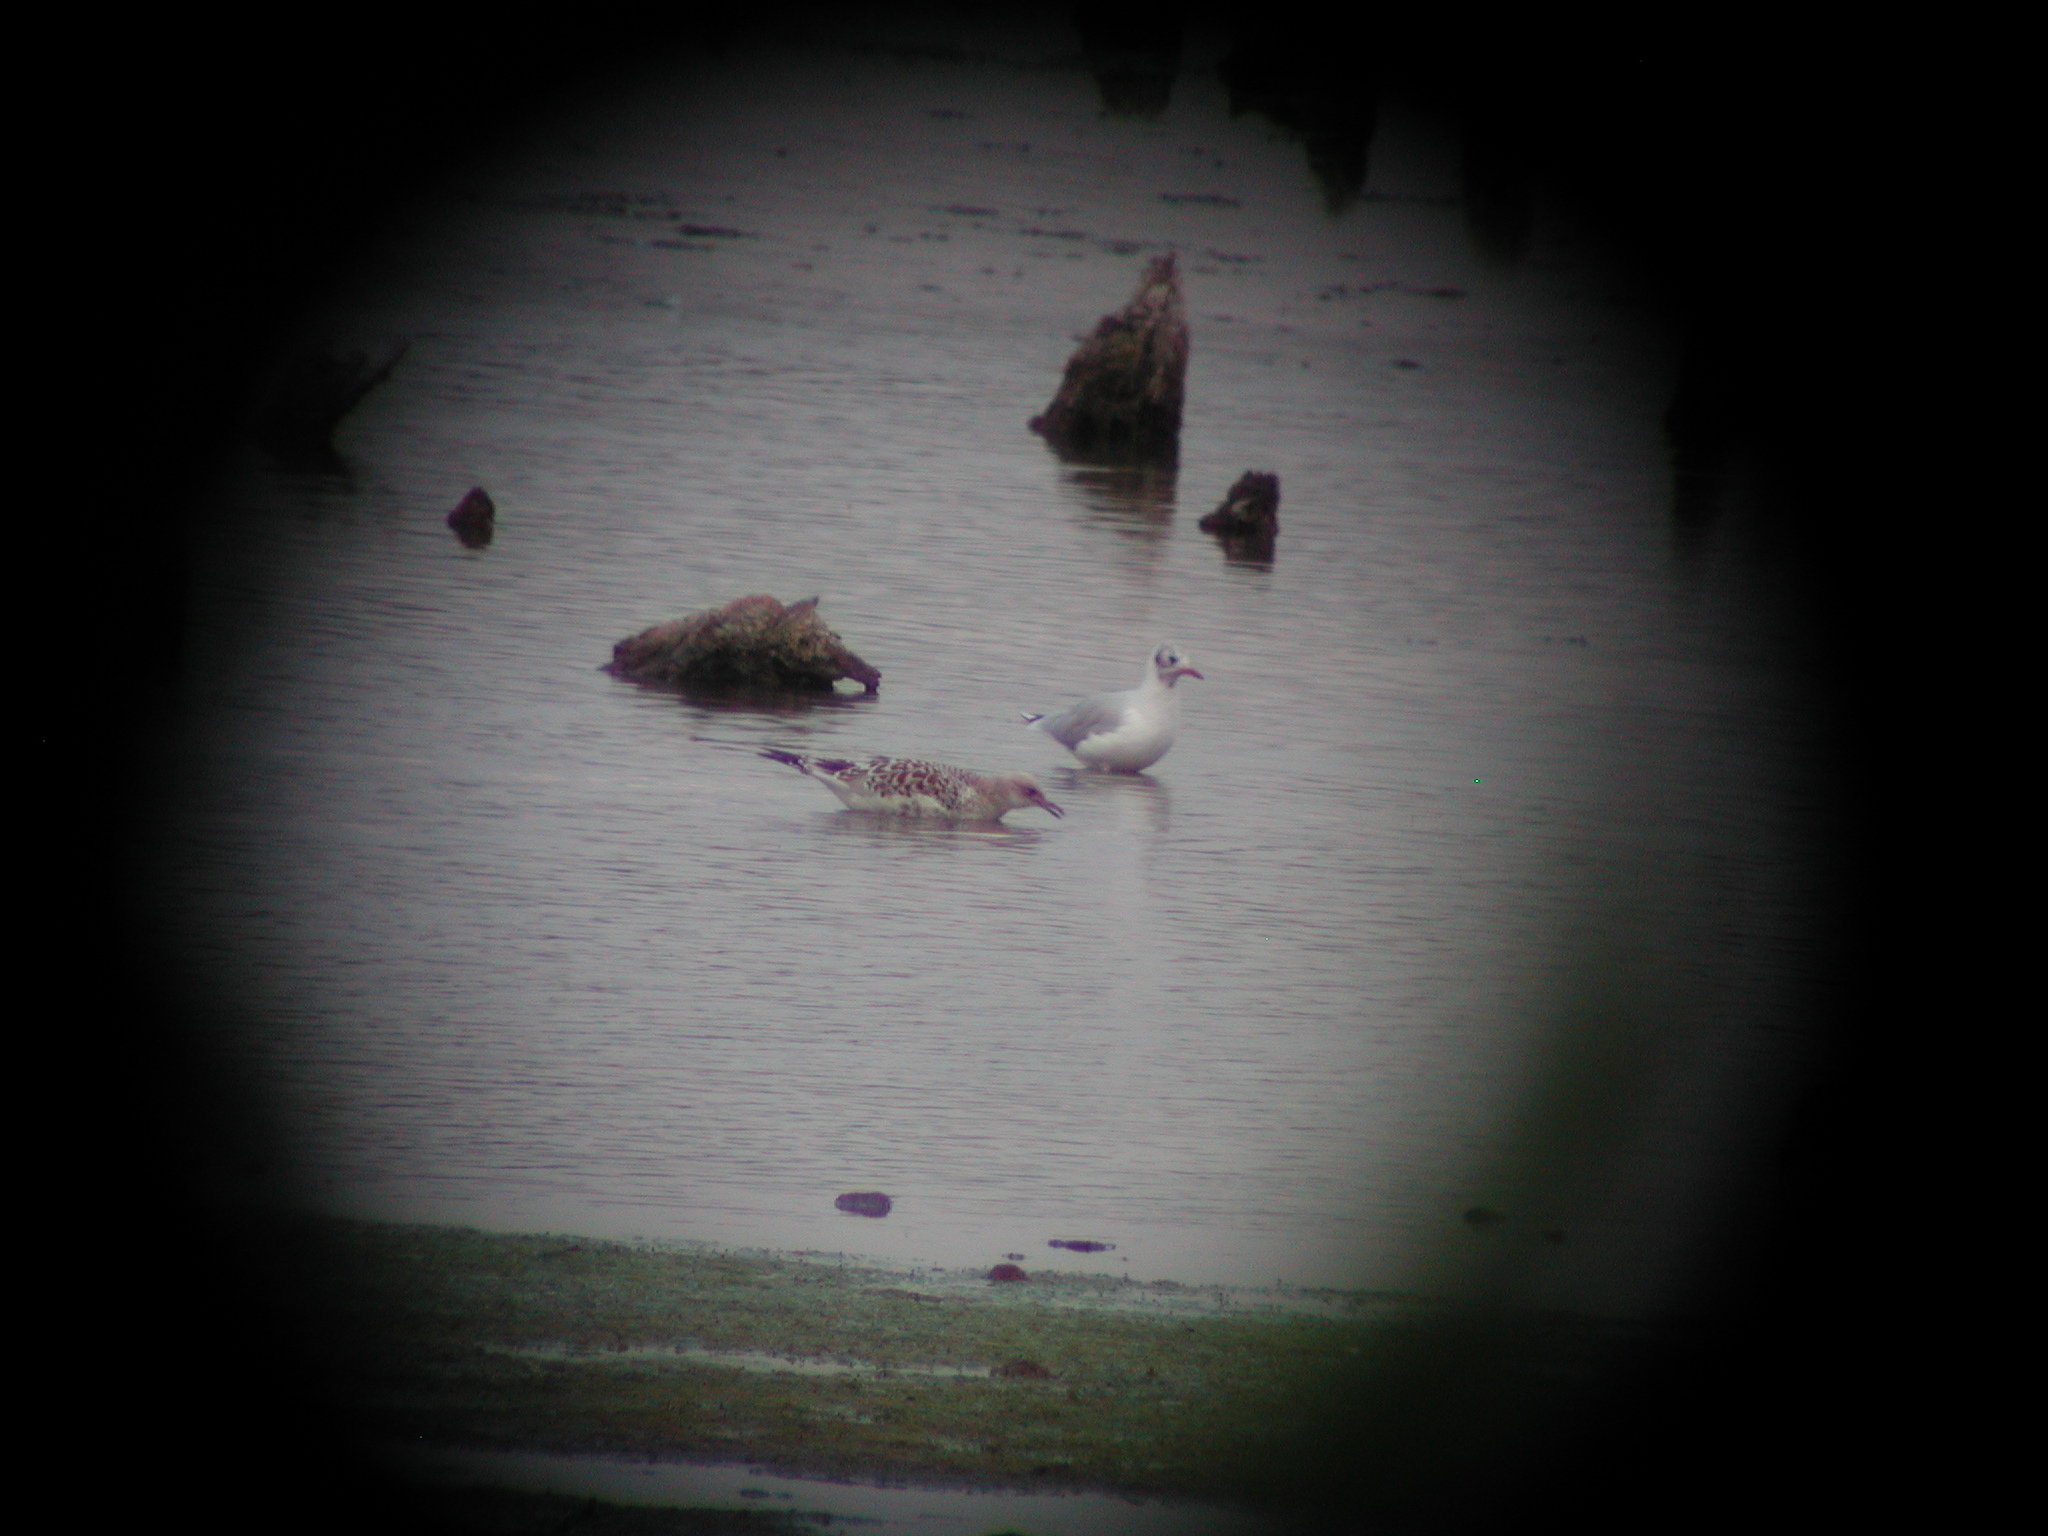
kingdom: Animalia
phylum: Chordata
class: Aves
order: Charadriiformes
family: Laridae
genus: Larus
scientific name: Larus canus
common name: Mew gull
